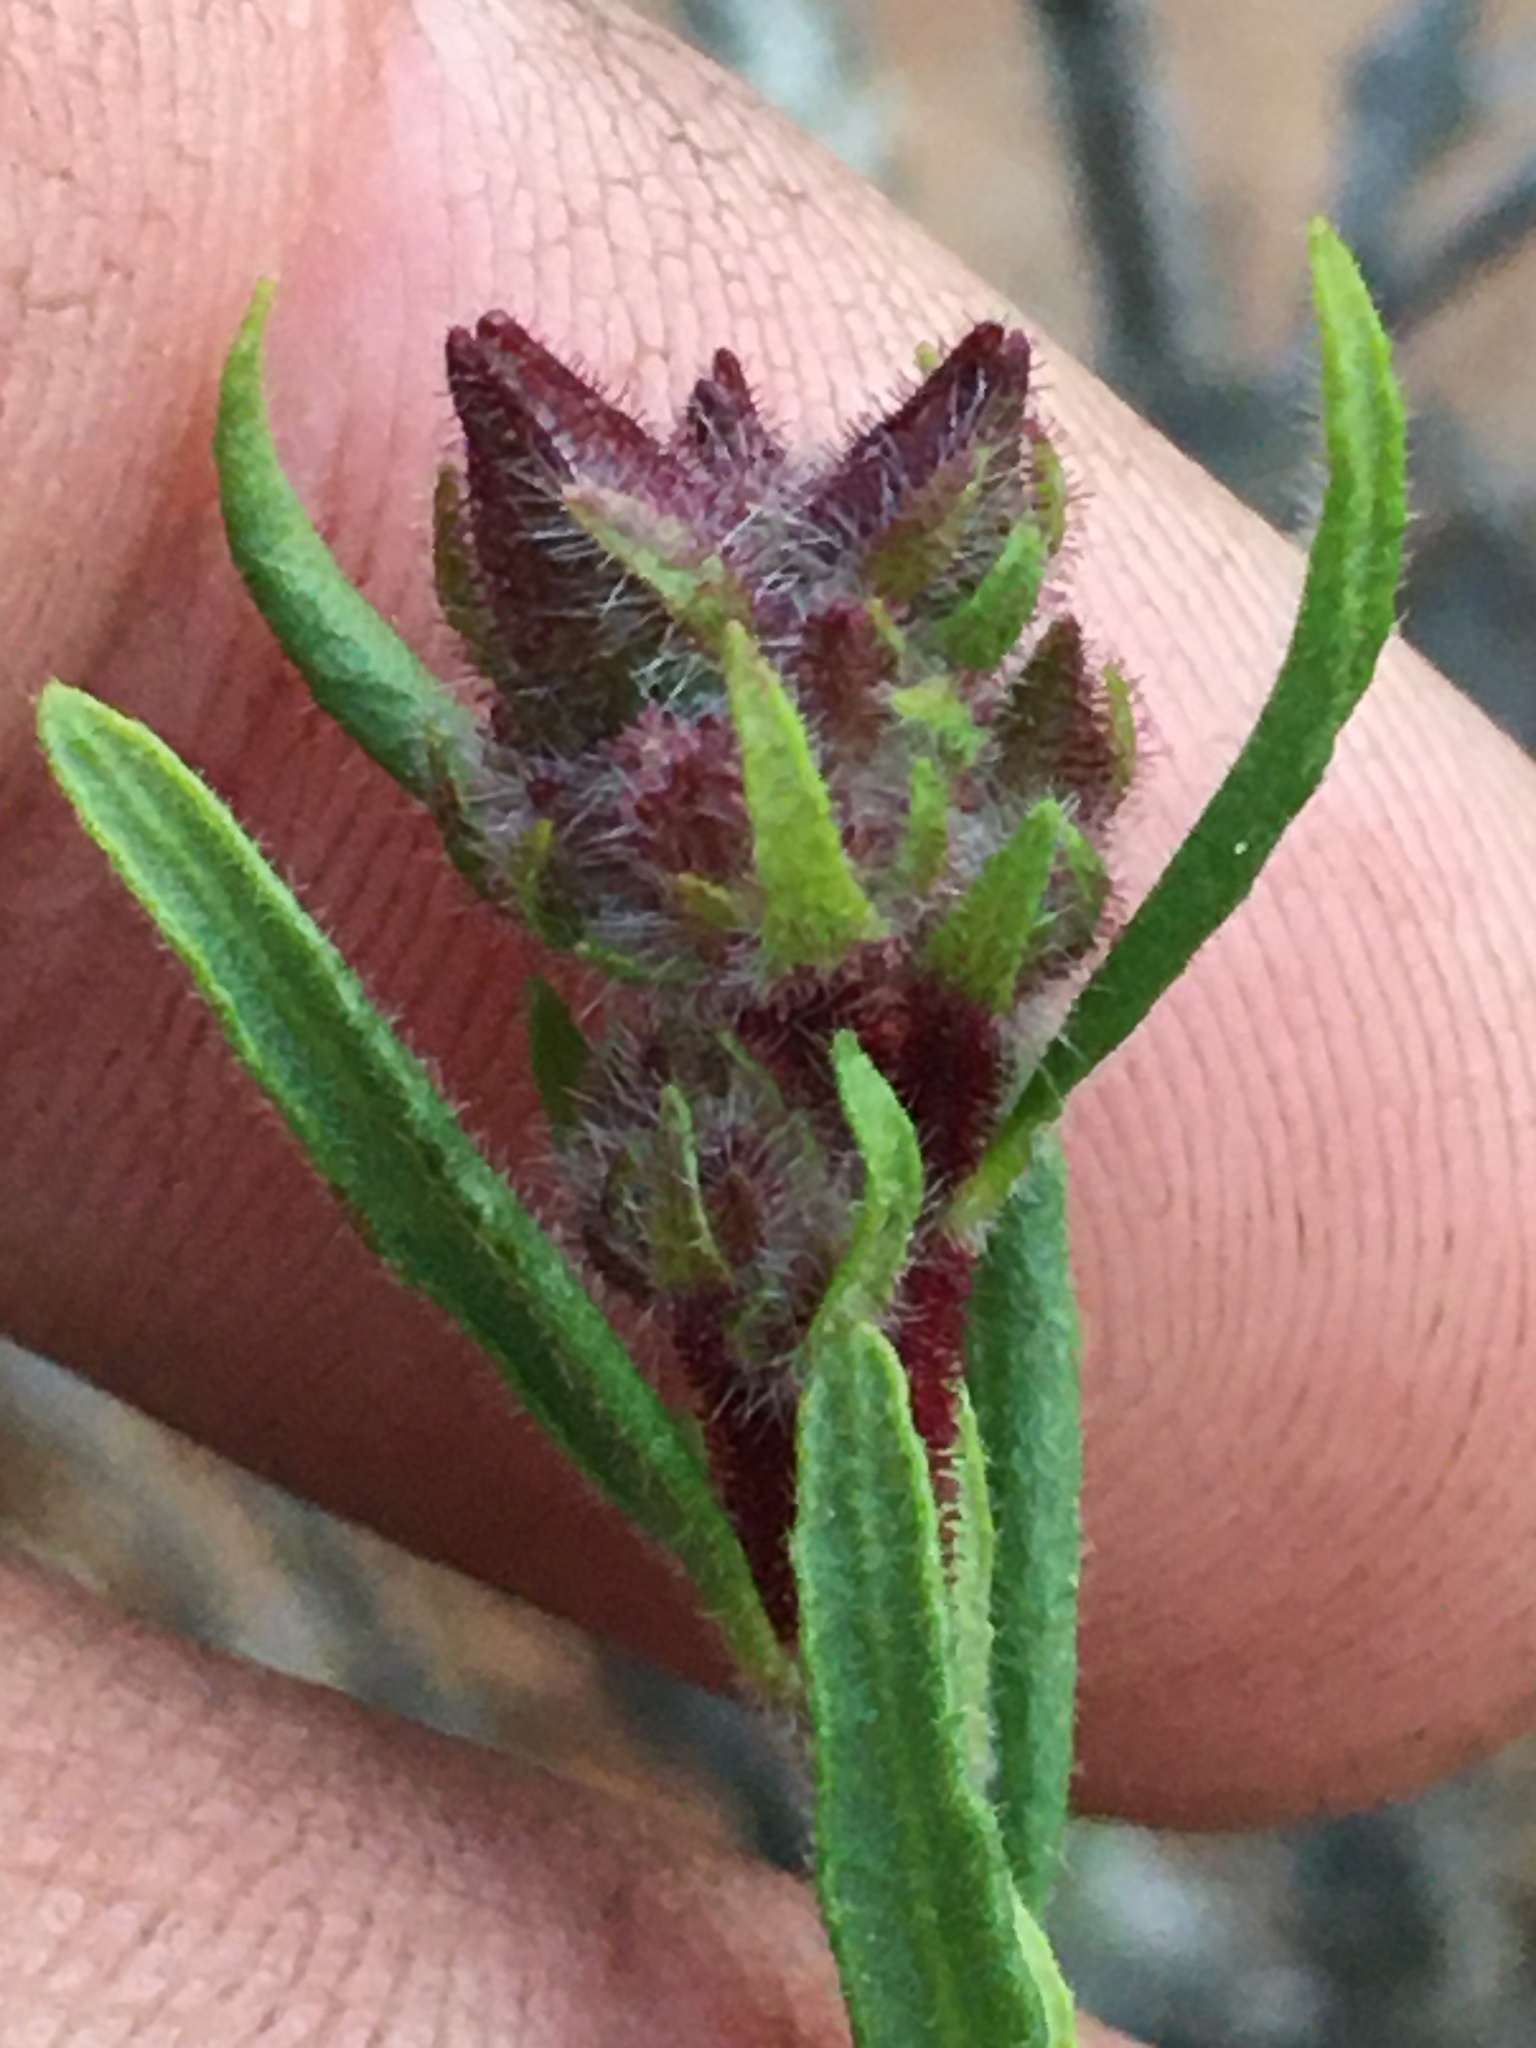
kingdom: Plantae
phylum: Tracheophyta
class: Magnoliopsida
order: Malvales
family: Cistaceae
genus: Crocanthemum
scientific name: Crocanthemum greenei
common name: Island rush-rose
